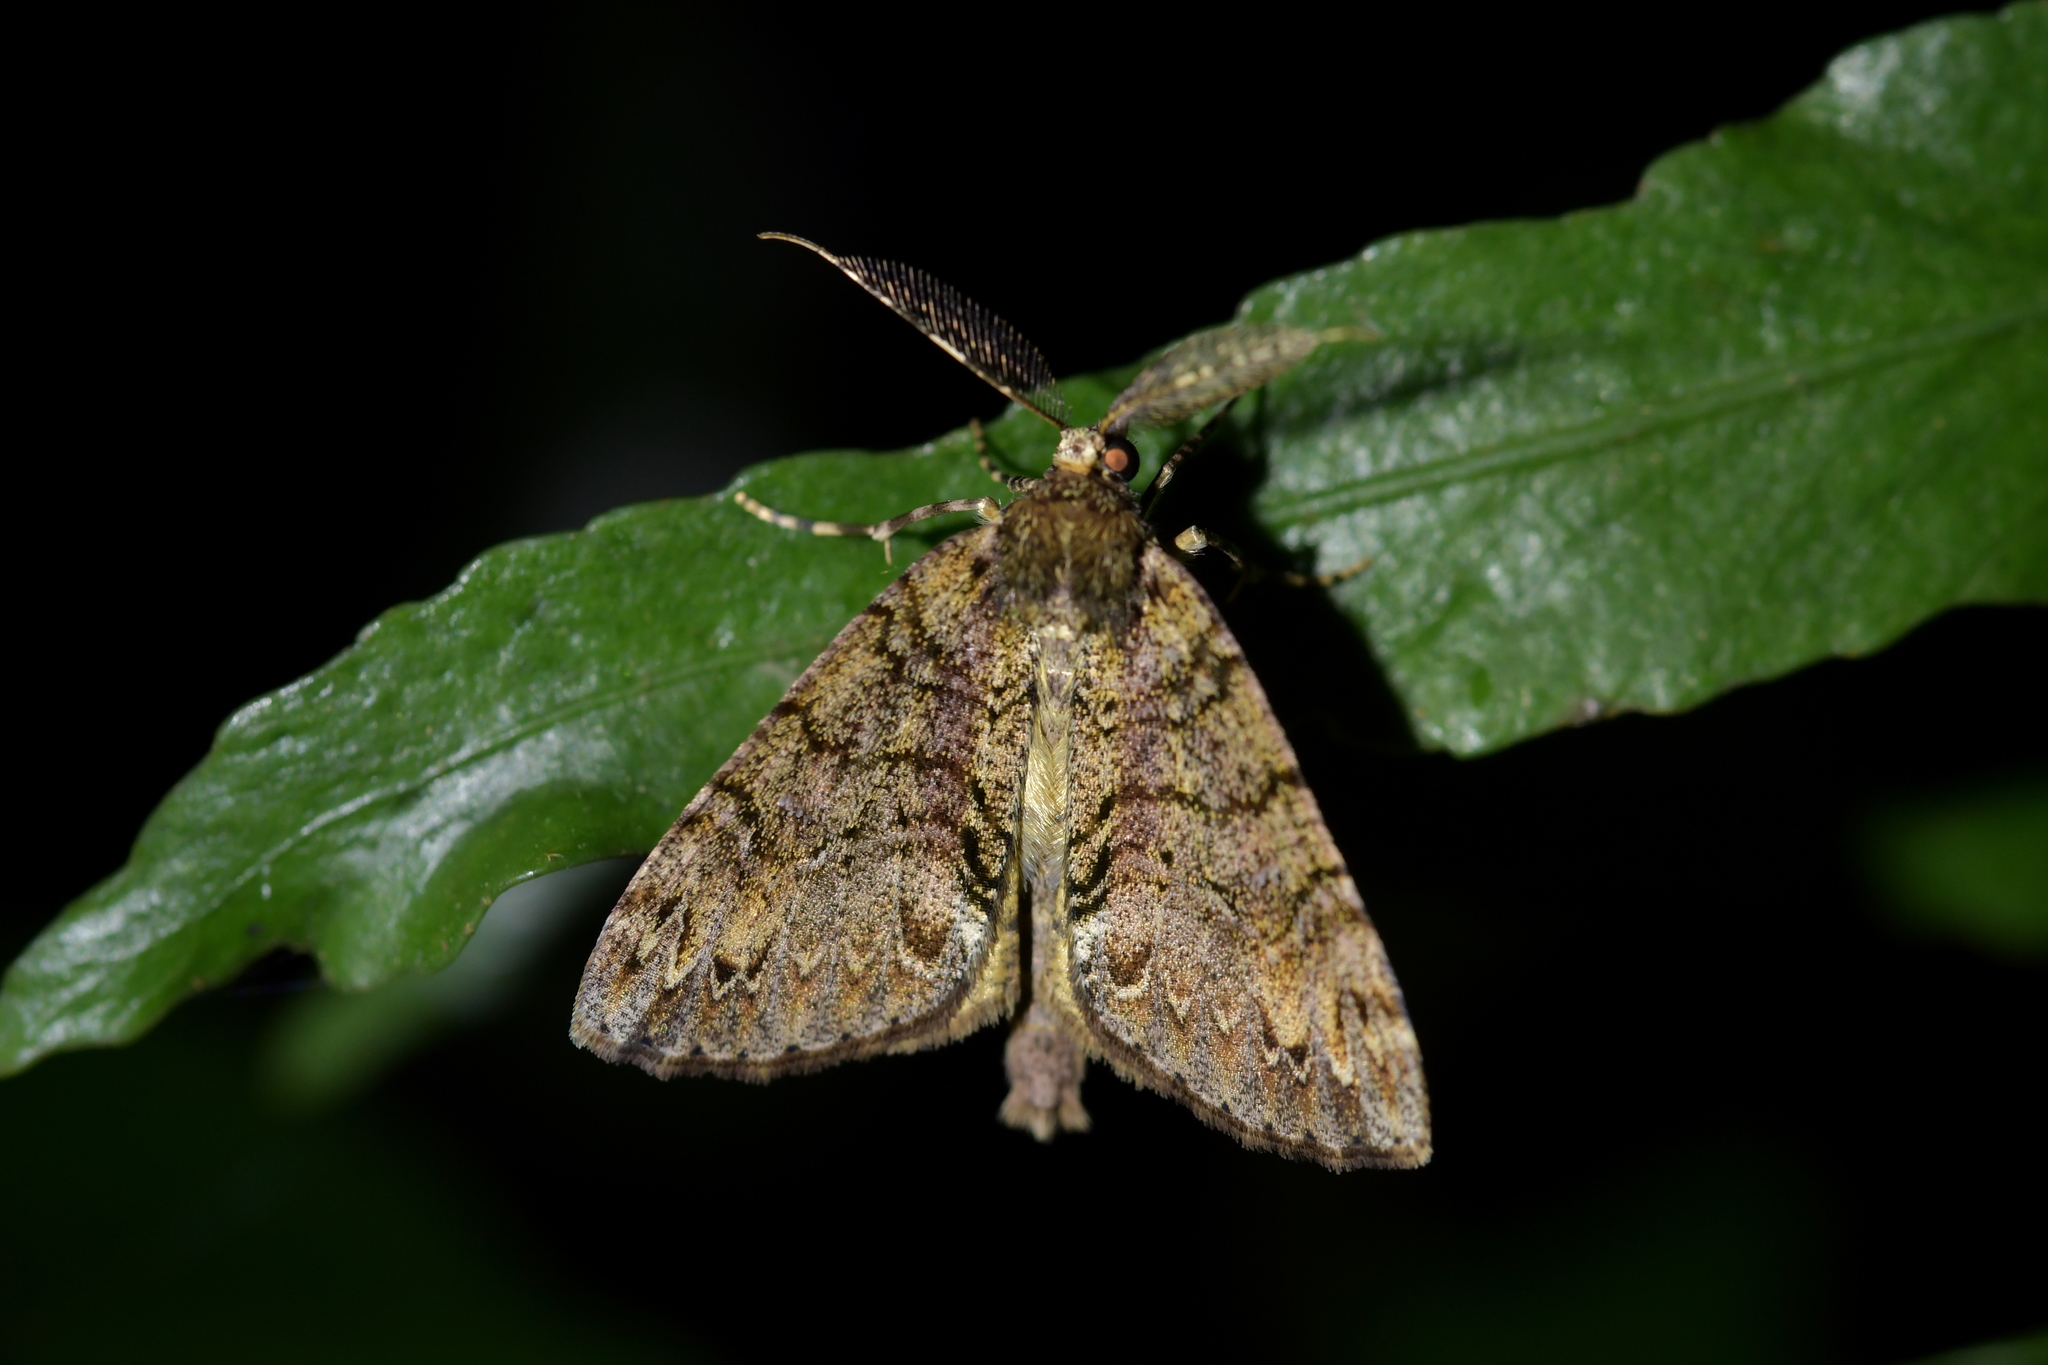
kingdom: Animalia
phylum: Arthropoda
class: Insecta
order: Lepidoptera
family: Geometridae
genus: Pseudocoremia
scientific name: Pseudocoremia suavis
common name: Common forest looper
